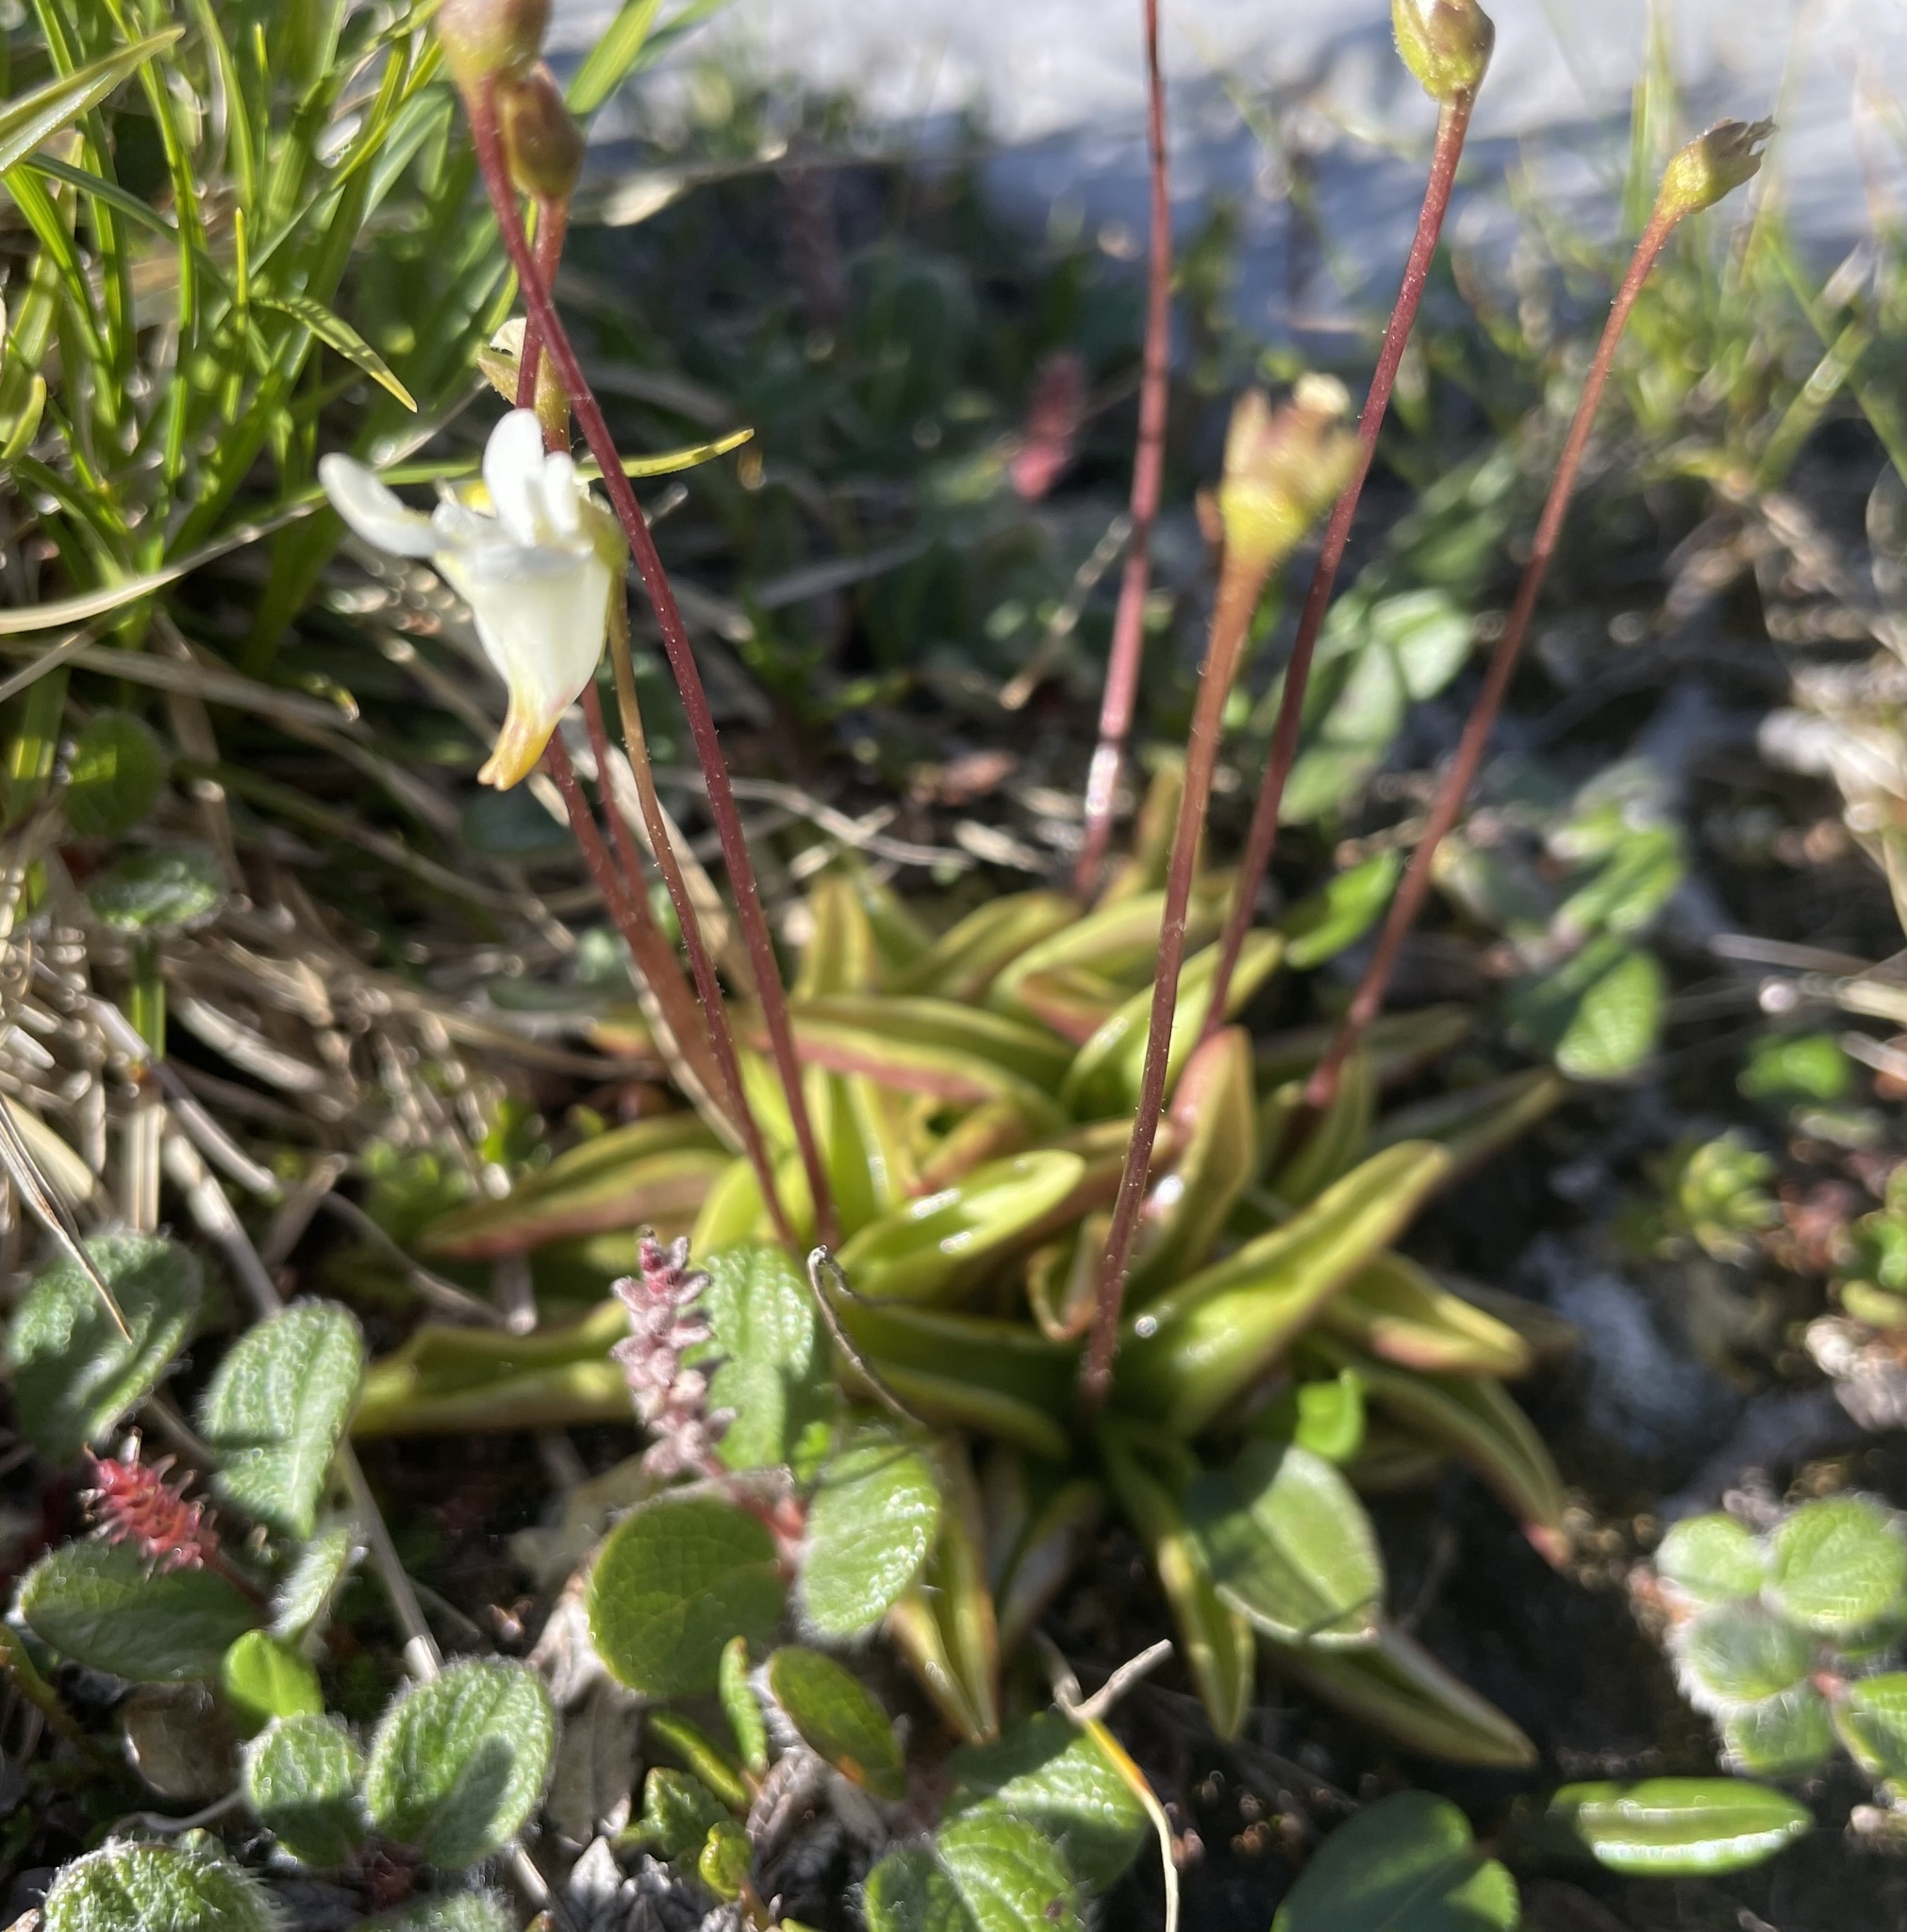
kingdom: Plantae
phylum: Tracheophyta
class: Magnoliopsida
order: Lamiales
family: Lentibulariaceae
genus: Pinguicula
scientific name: Pinguicula alpina
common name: Alpine butterwort
